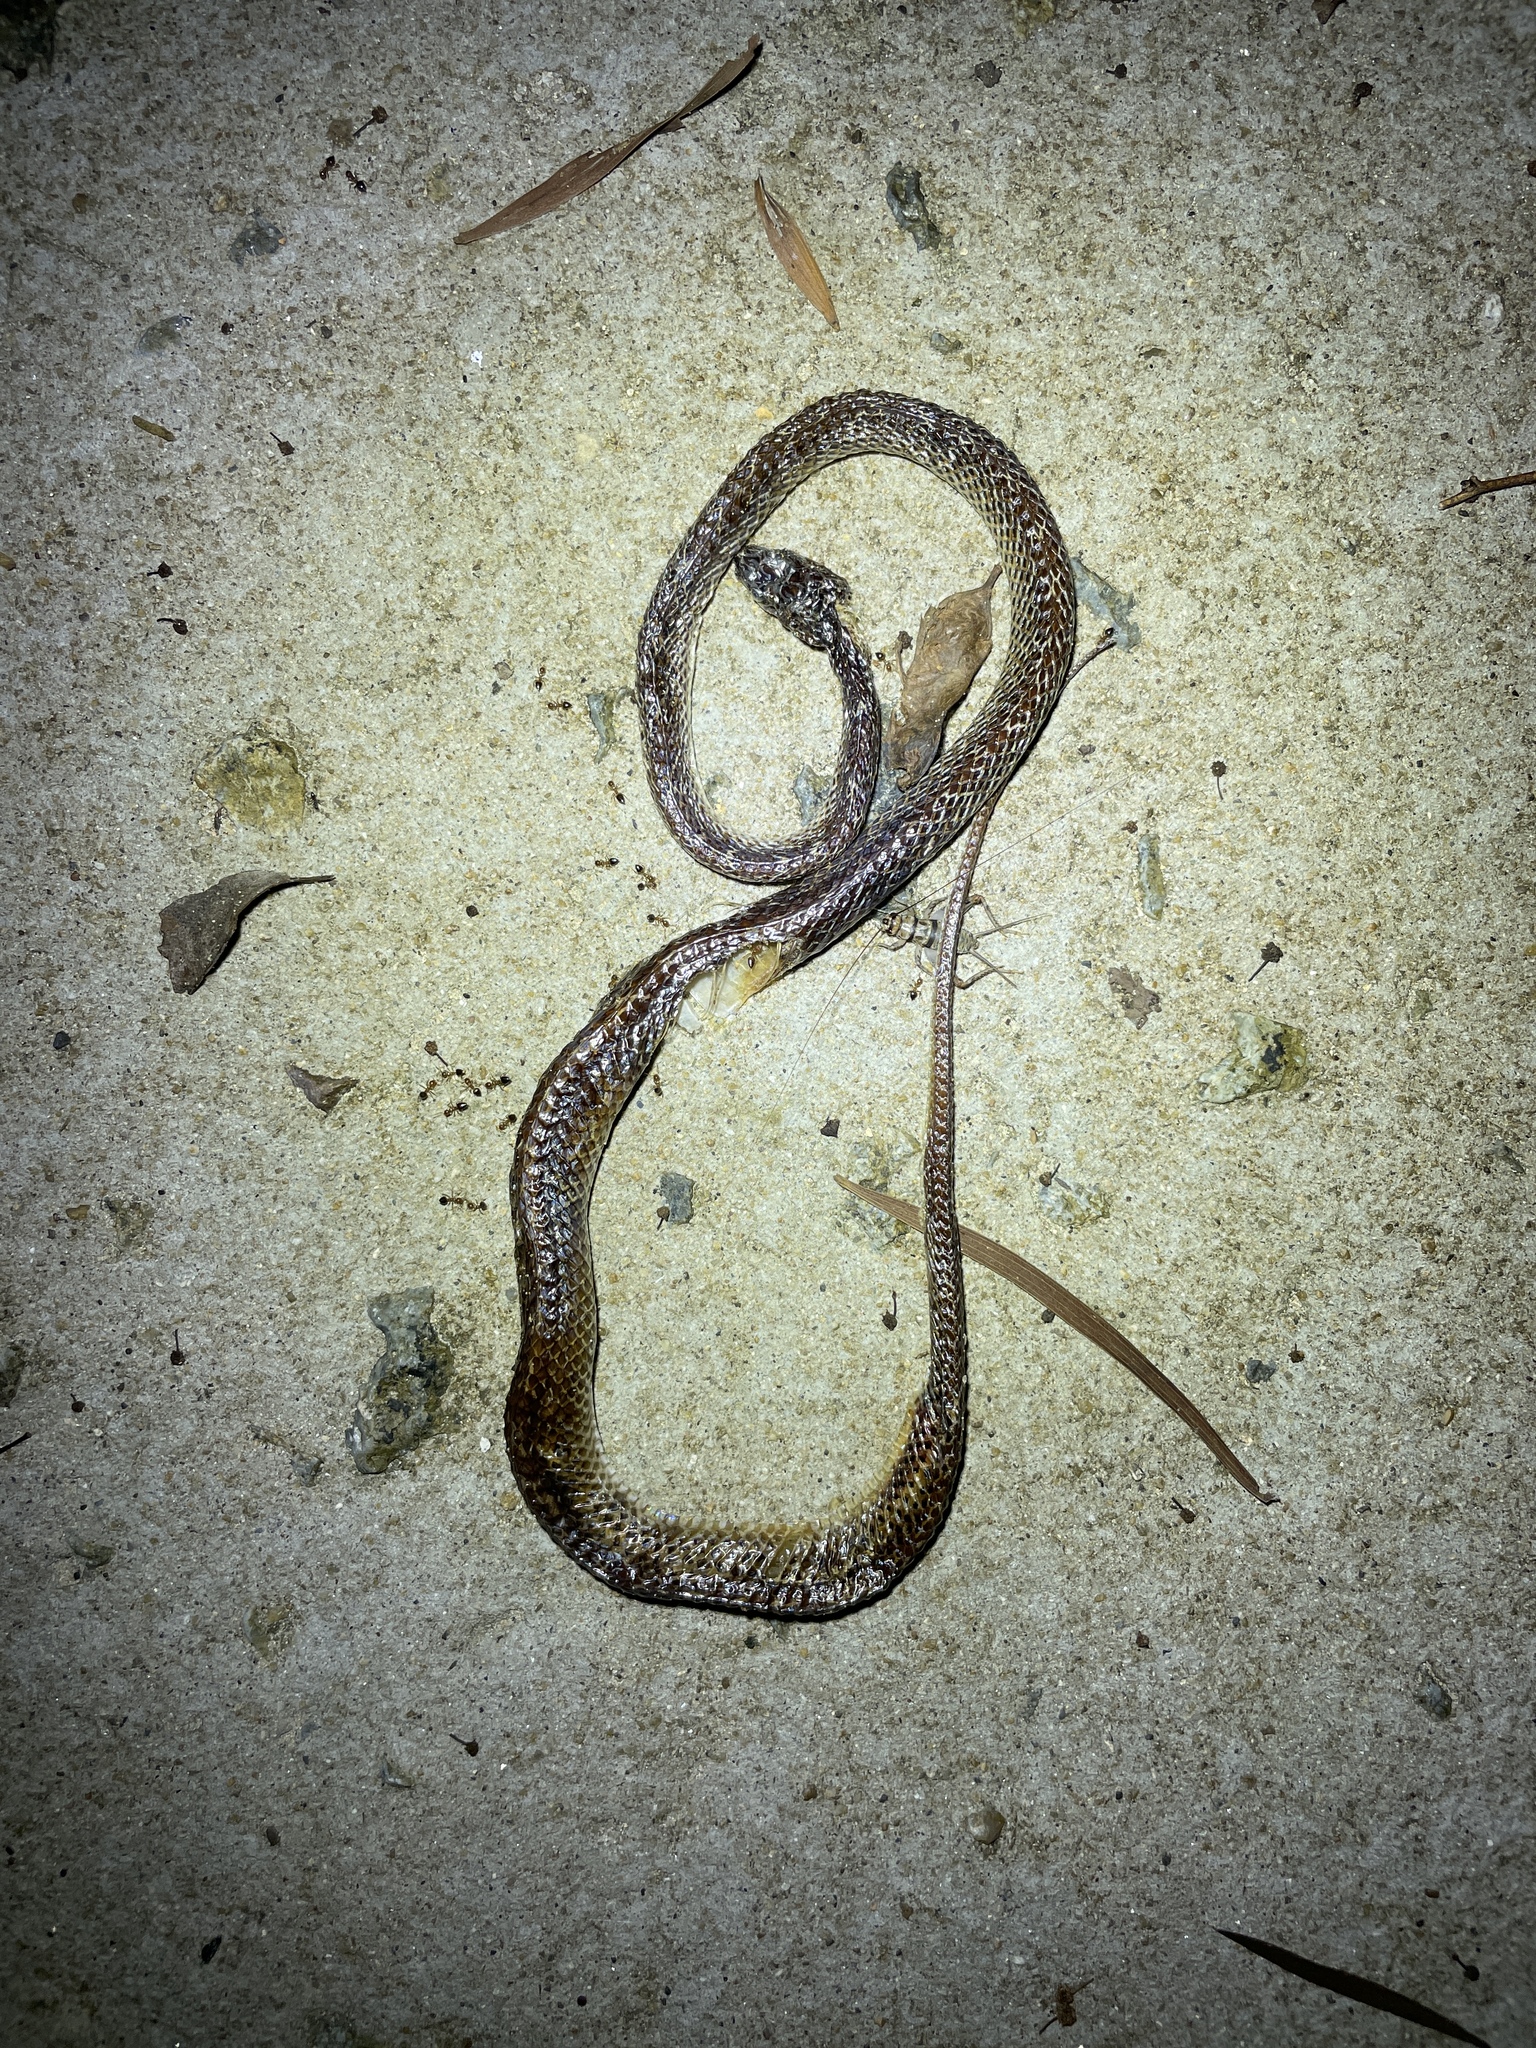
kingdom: Animalia
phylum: Chordata
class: Squamata
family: Colubridae
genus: Lycodon
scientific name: Lycodon capucinus
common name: Common wold snake/house snake
